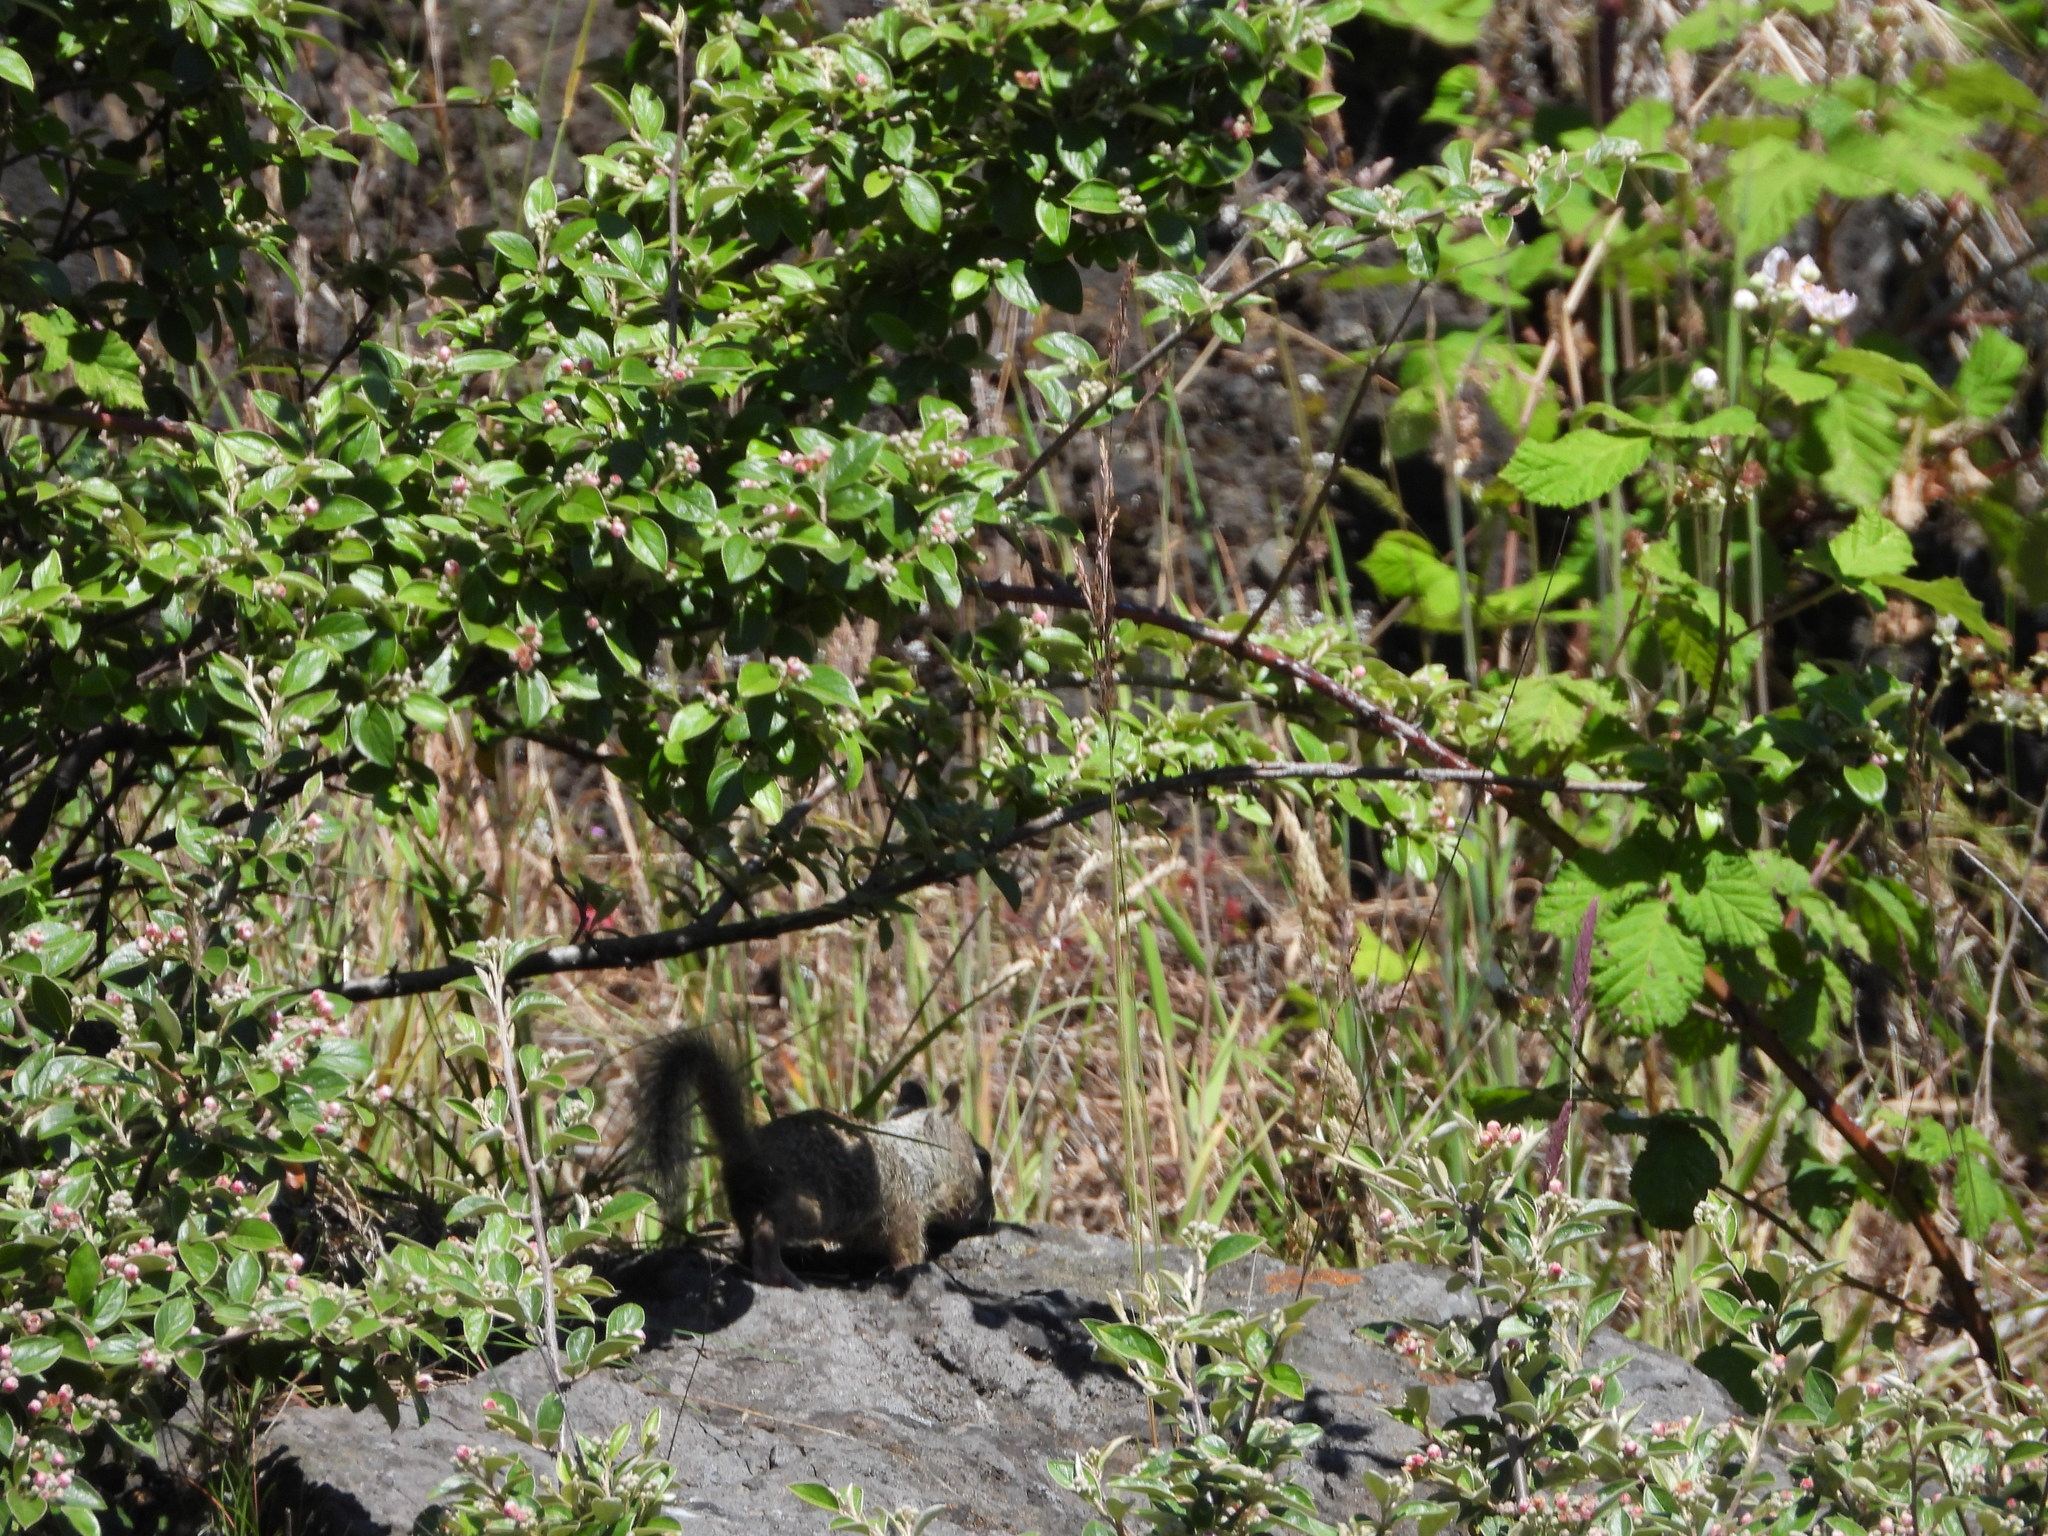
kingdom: Animalia
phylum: Chordata
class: Mammalia
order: Rodentia
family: Sciuridae
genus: Otospermophilus
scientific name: Otospermophilus beecheyi
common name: California ground squirrel
